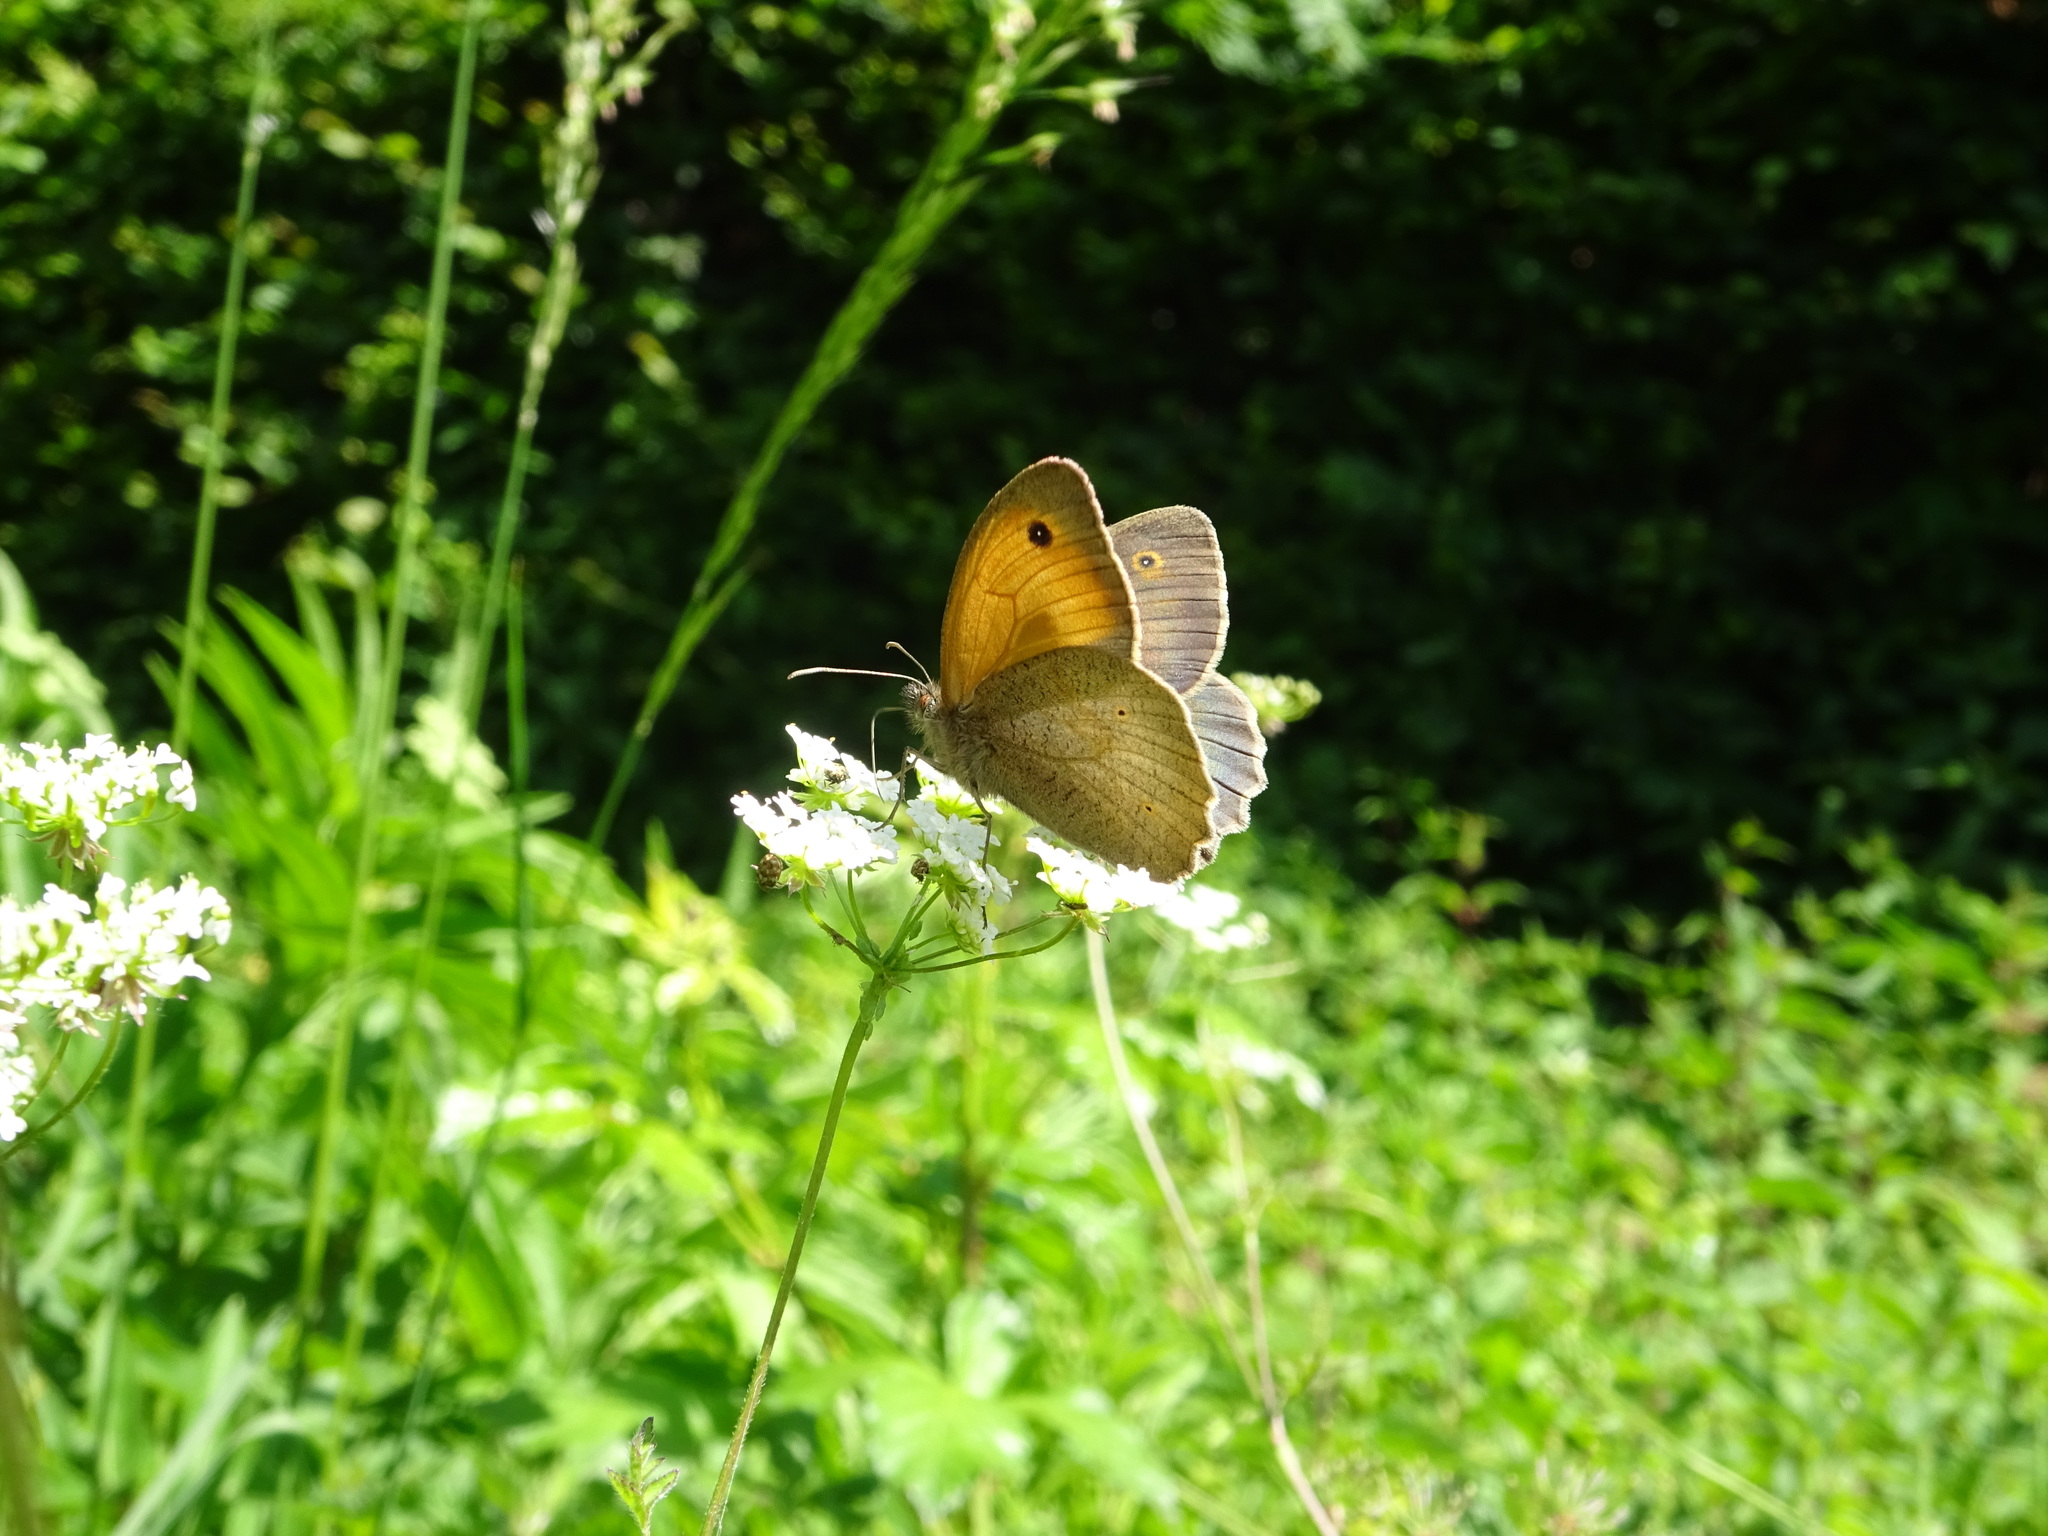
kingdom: Animalia
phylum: Arthropoda
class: Insecta
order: Lepidoptera
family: Nymphalidae
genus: Maniola
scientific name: Maniola jurtina
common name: Meadow brown
